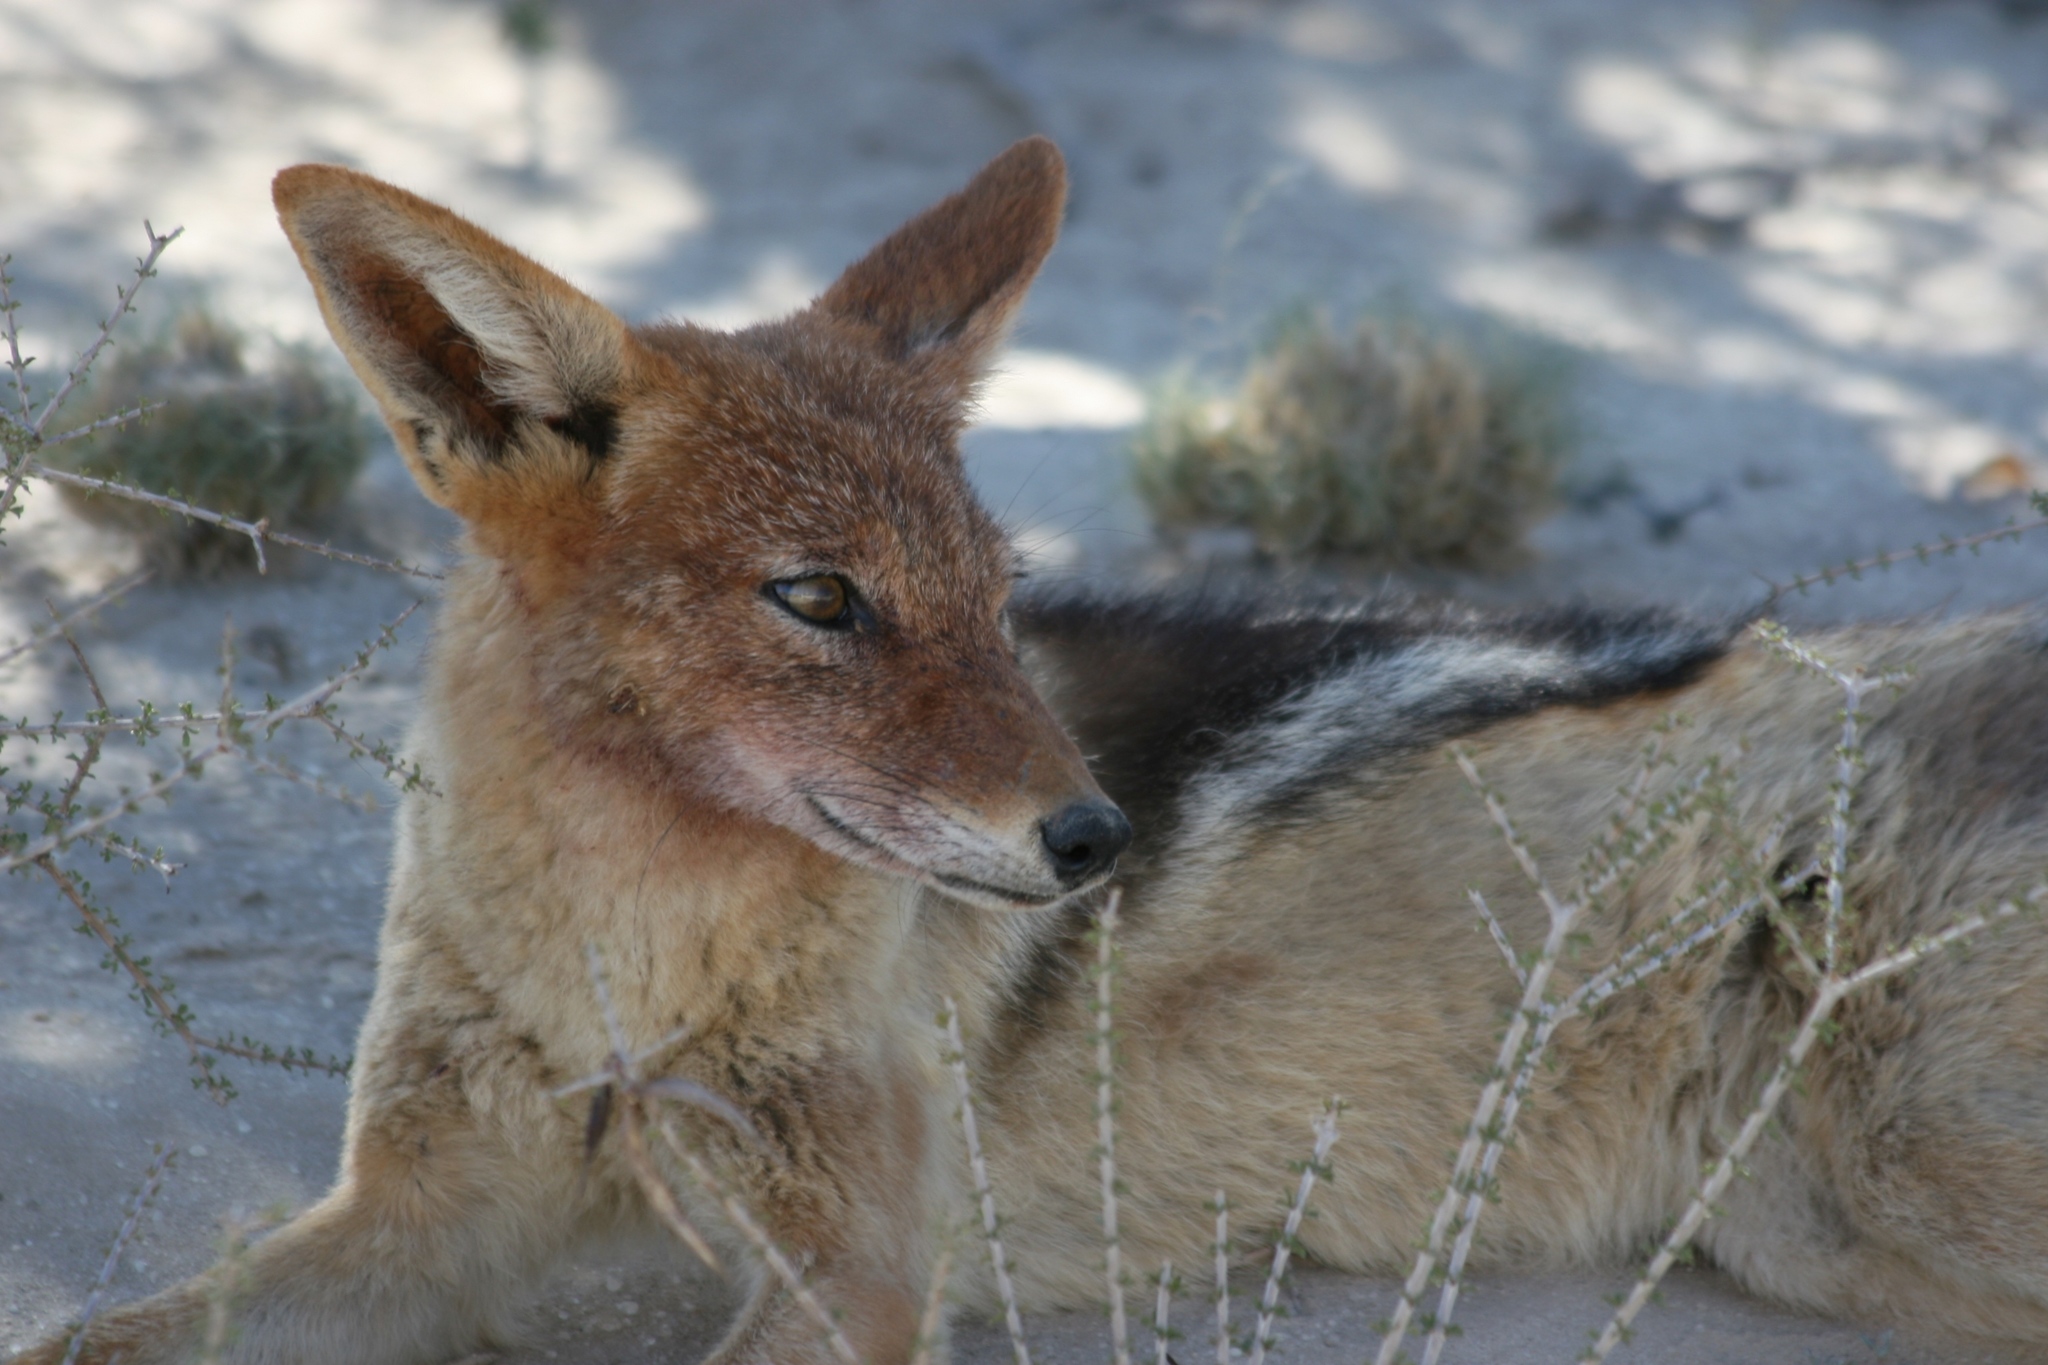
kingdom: Animalia
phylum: Chordata
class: Mammalia
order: Carnivora
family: Canidae
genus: Lupulella
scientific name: Lupulella
